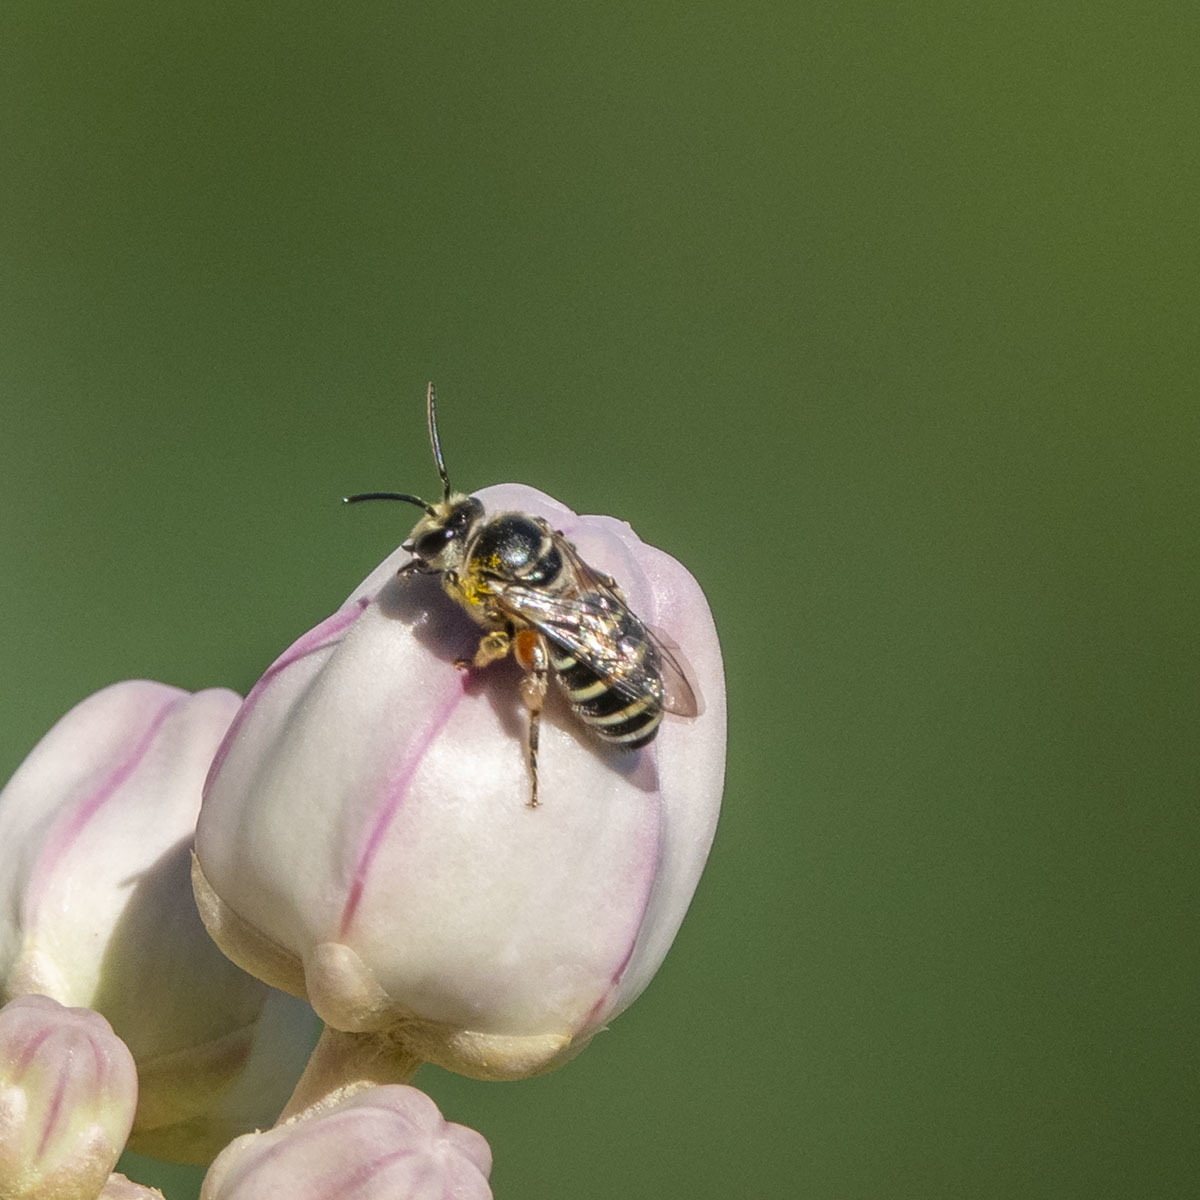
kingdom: Animalia
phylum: Arthropoda
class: Insecta
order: Hymenoptera
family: Halictidae
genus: Nomia
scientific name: Nomia westwoodi
